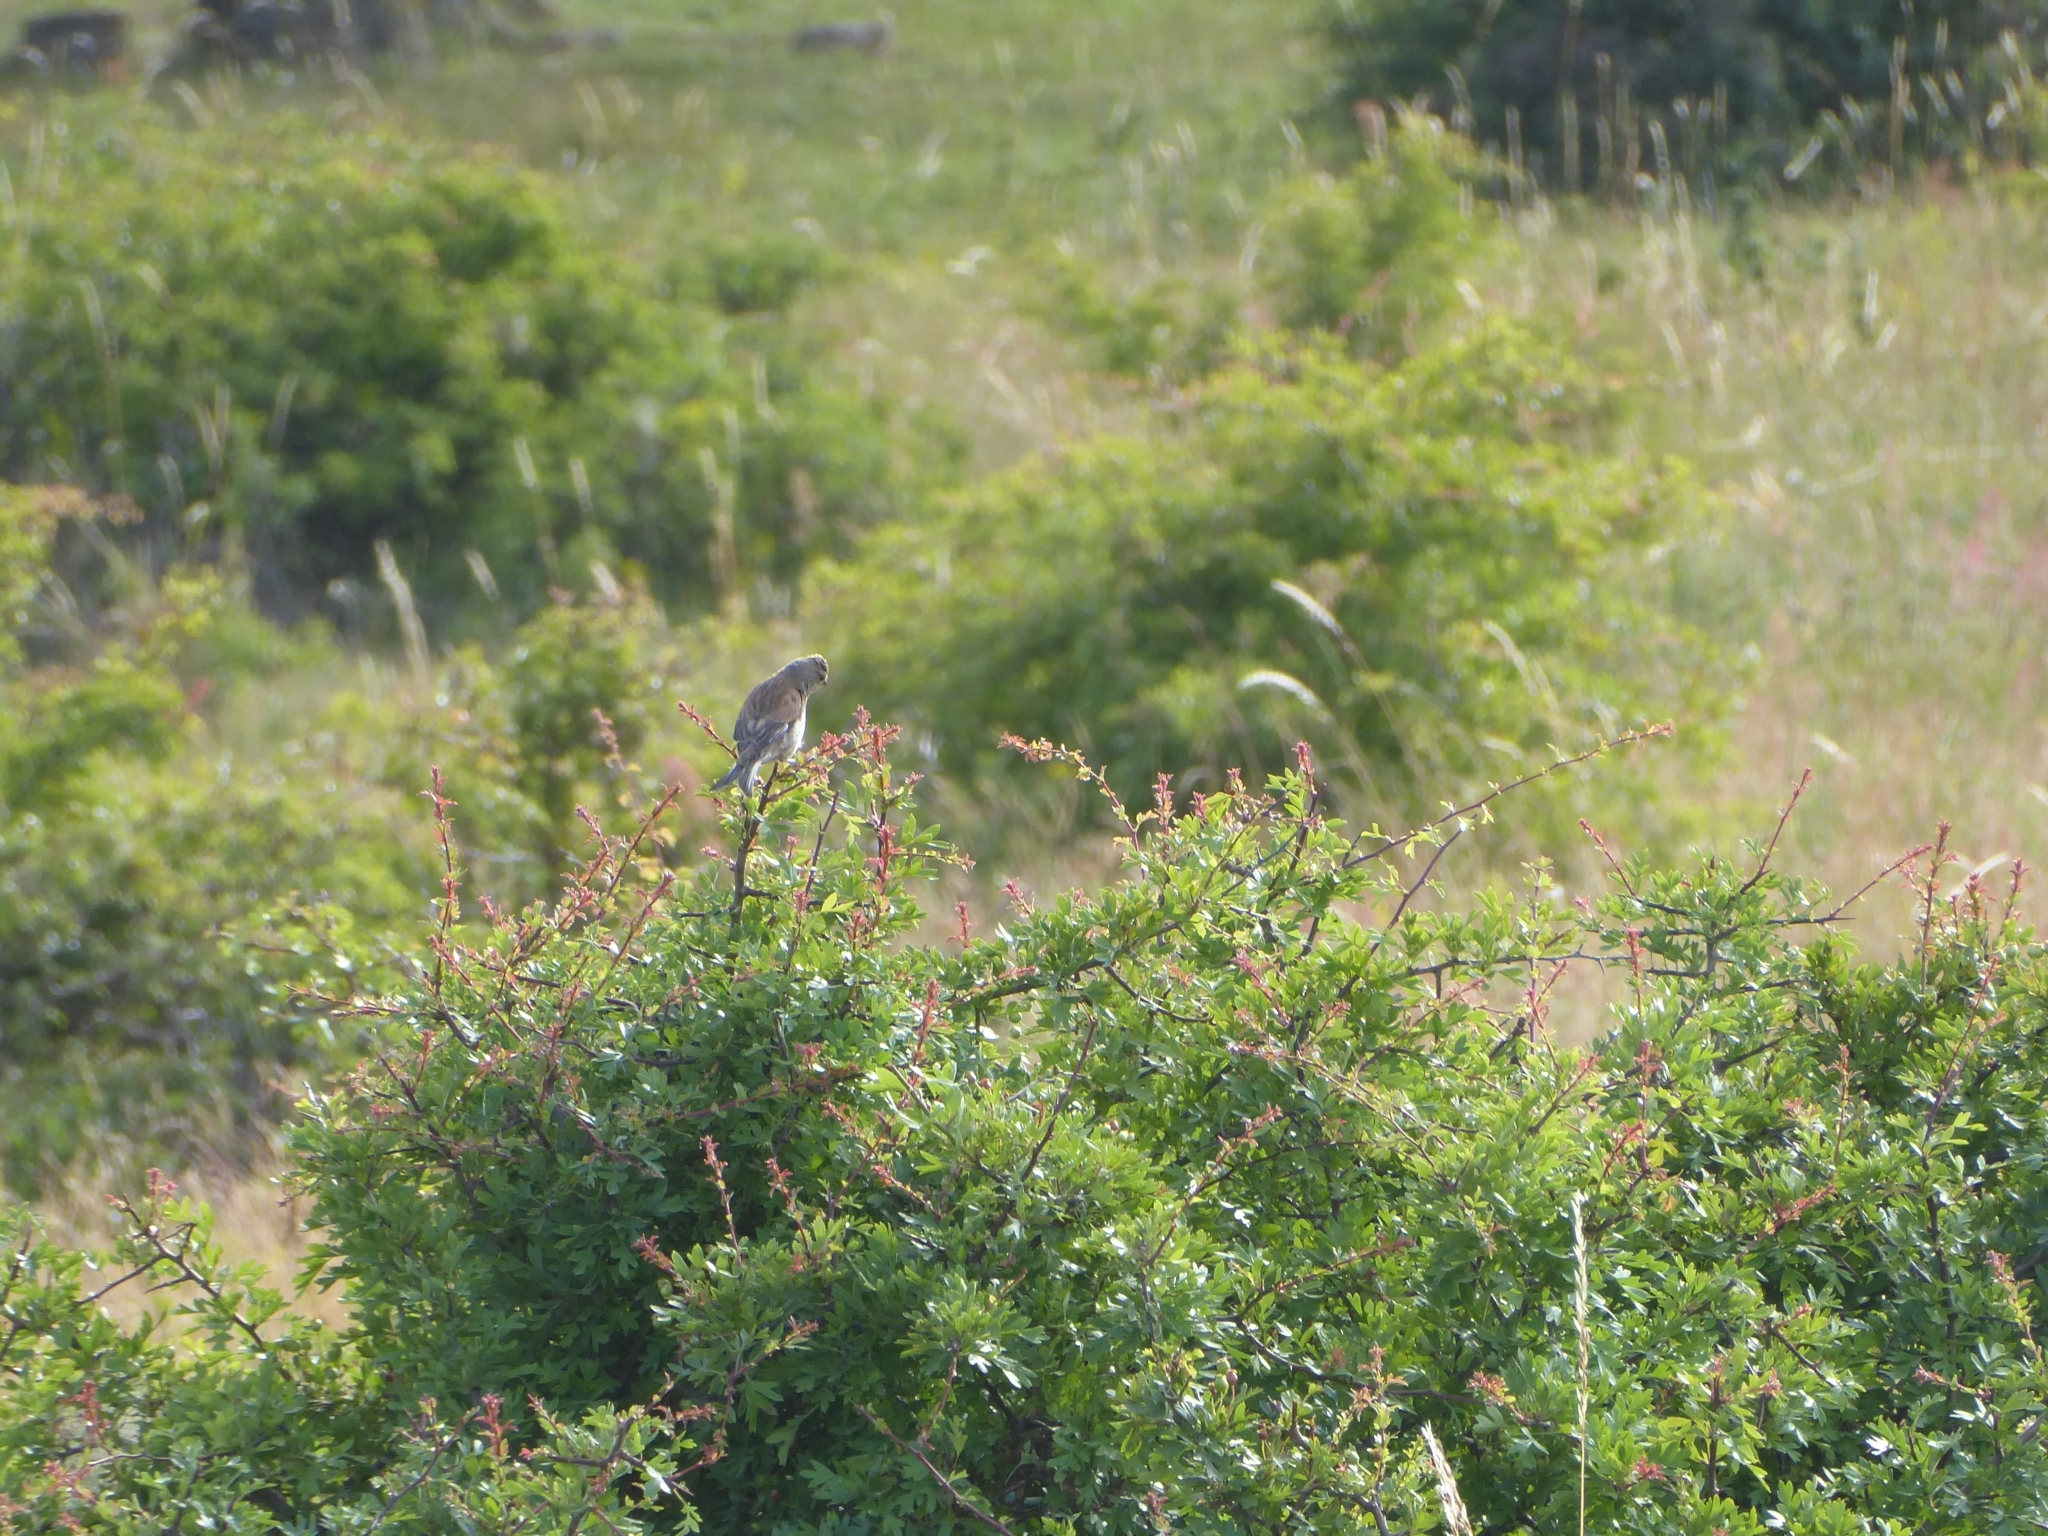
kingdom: Animalia
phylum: Chordata
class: Aves
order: Passeriformes
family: Fringillidae
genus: Linaria
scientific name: Linaria cannabina
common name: Common linnet
